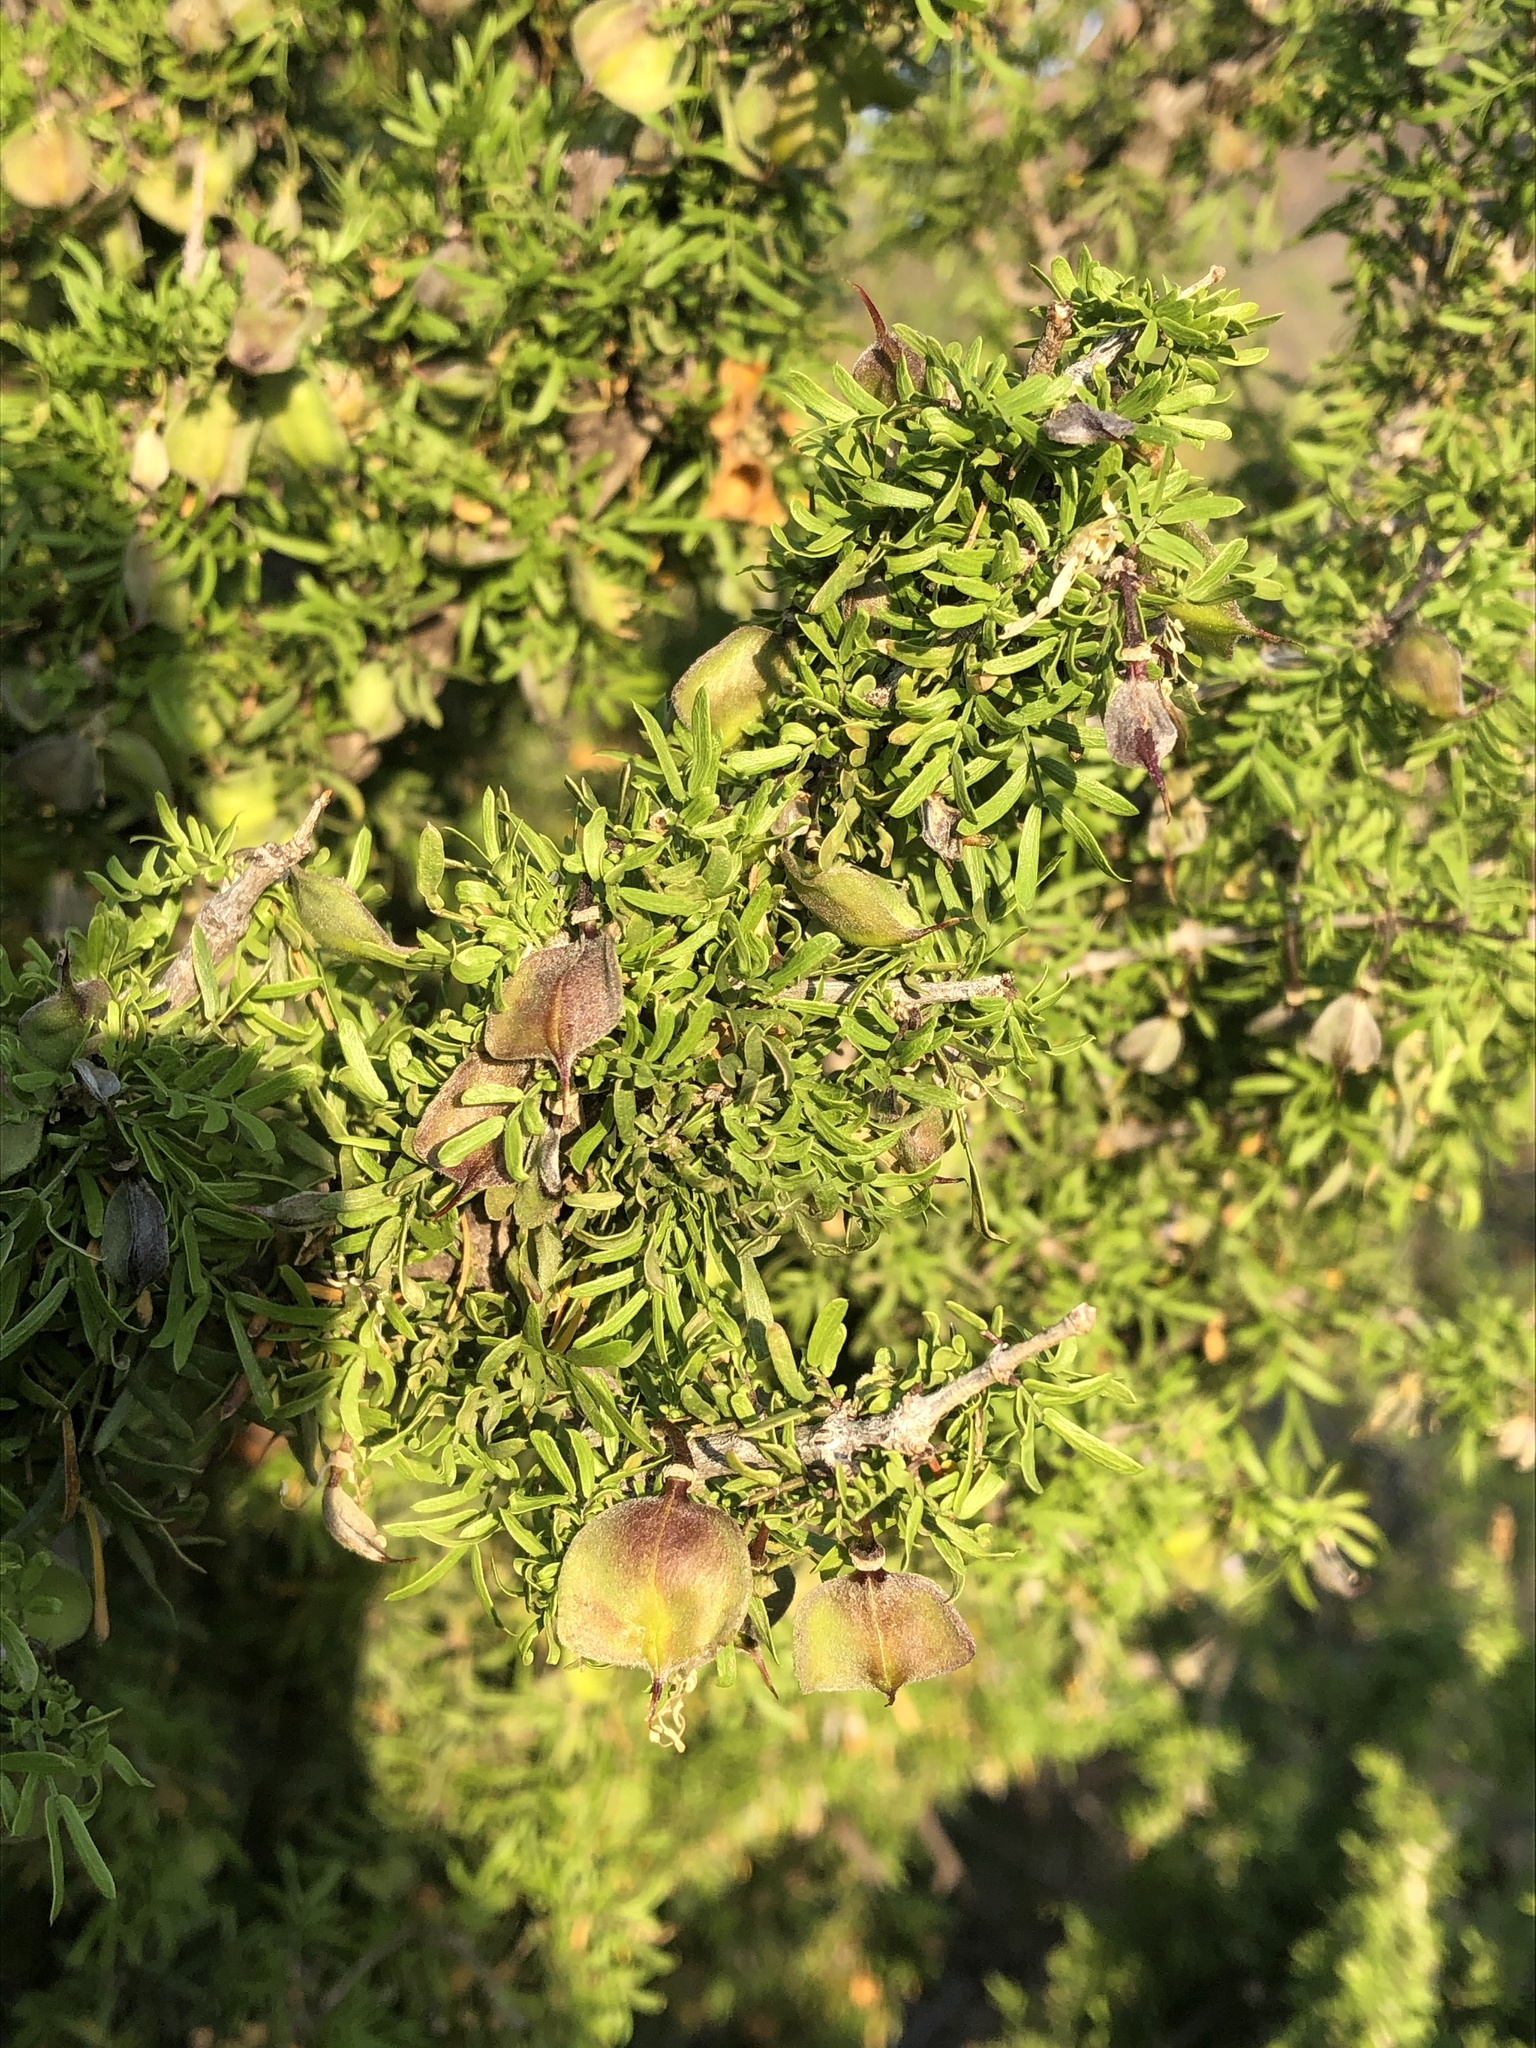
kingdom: Plantae
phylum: Tracheophyta
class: Magnoliopsida
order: Zygophyllales
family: Zygophyllaceae
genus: Porlieria
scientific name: Porlieria angustifolia
